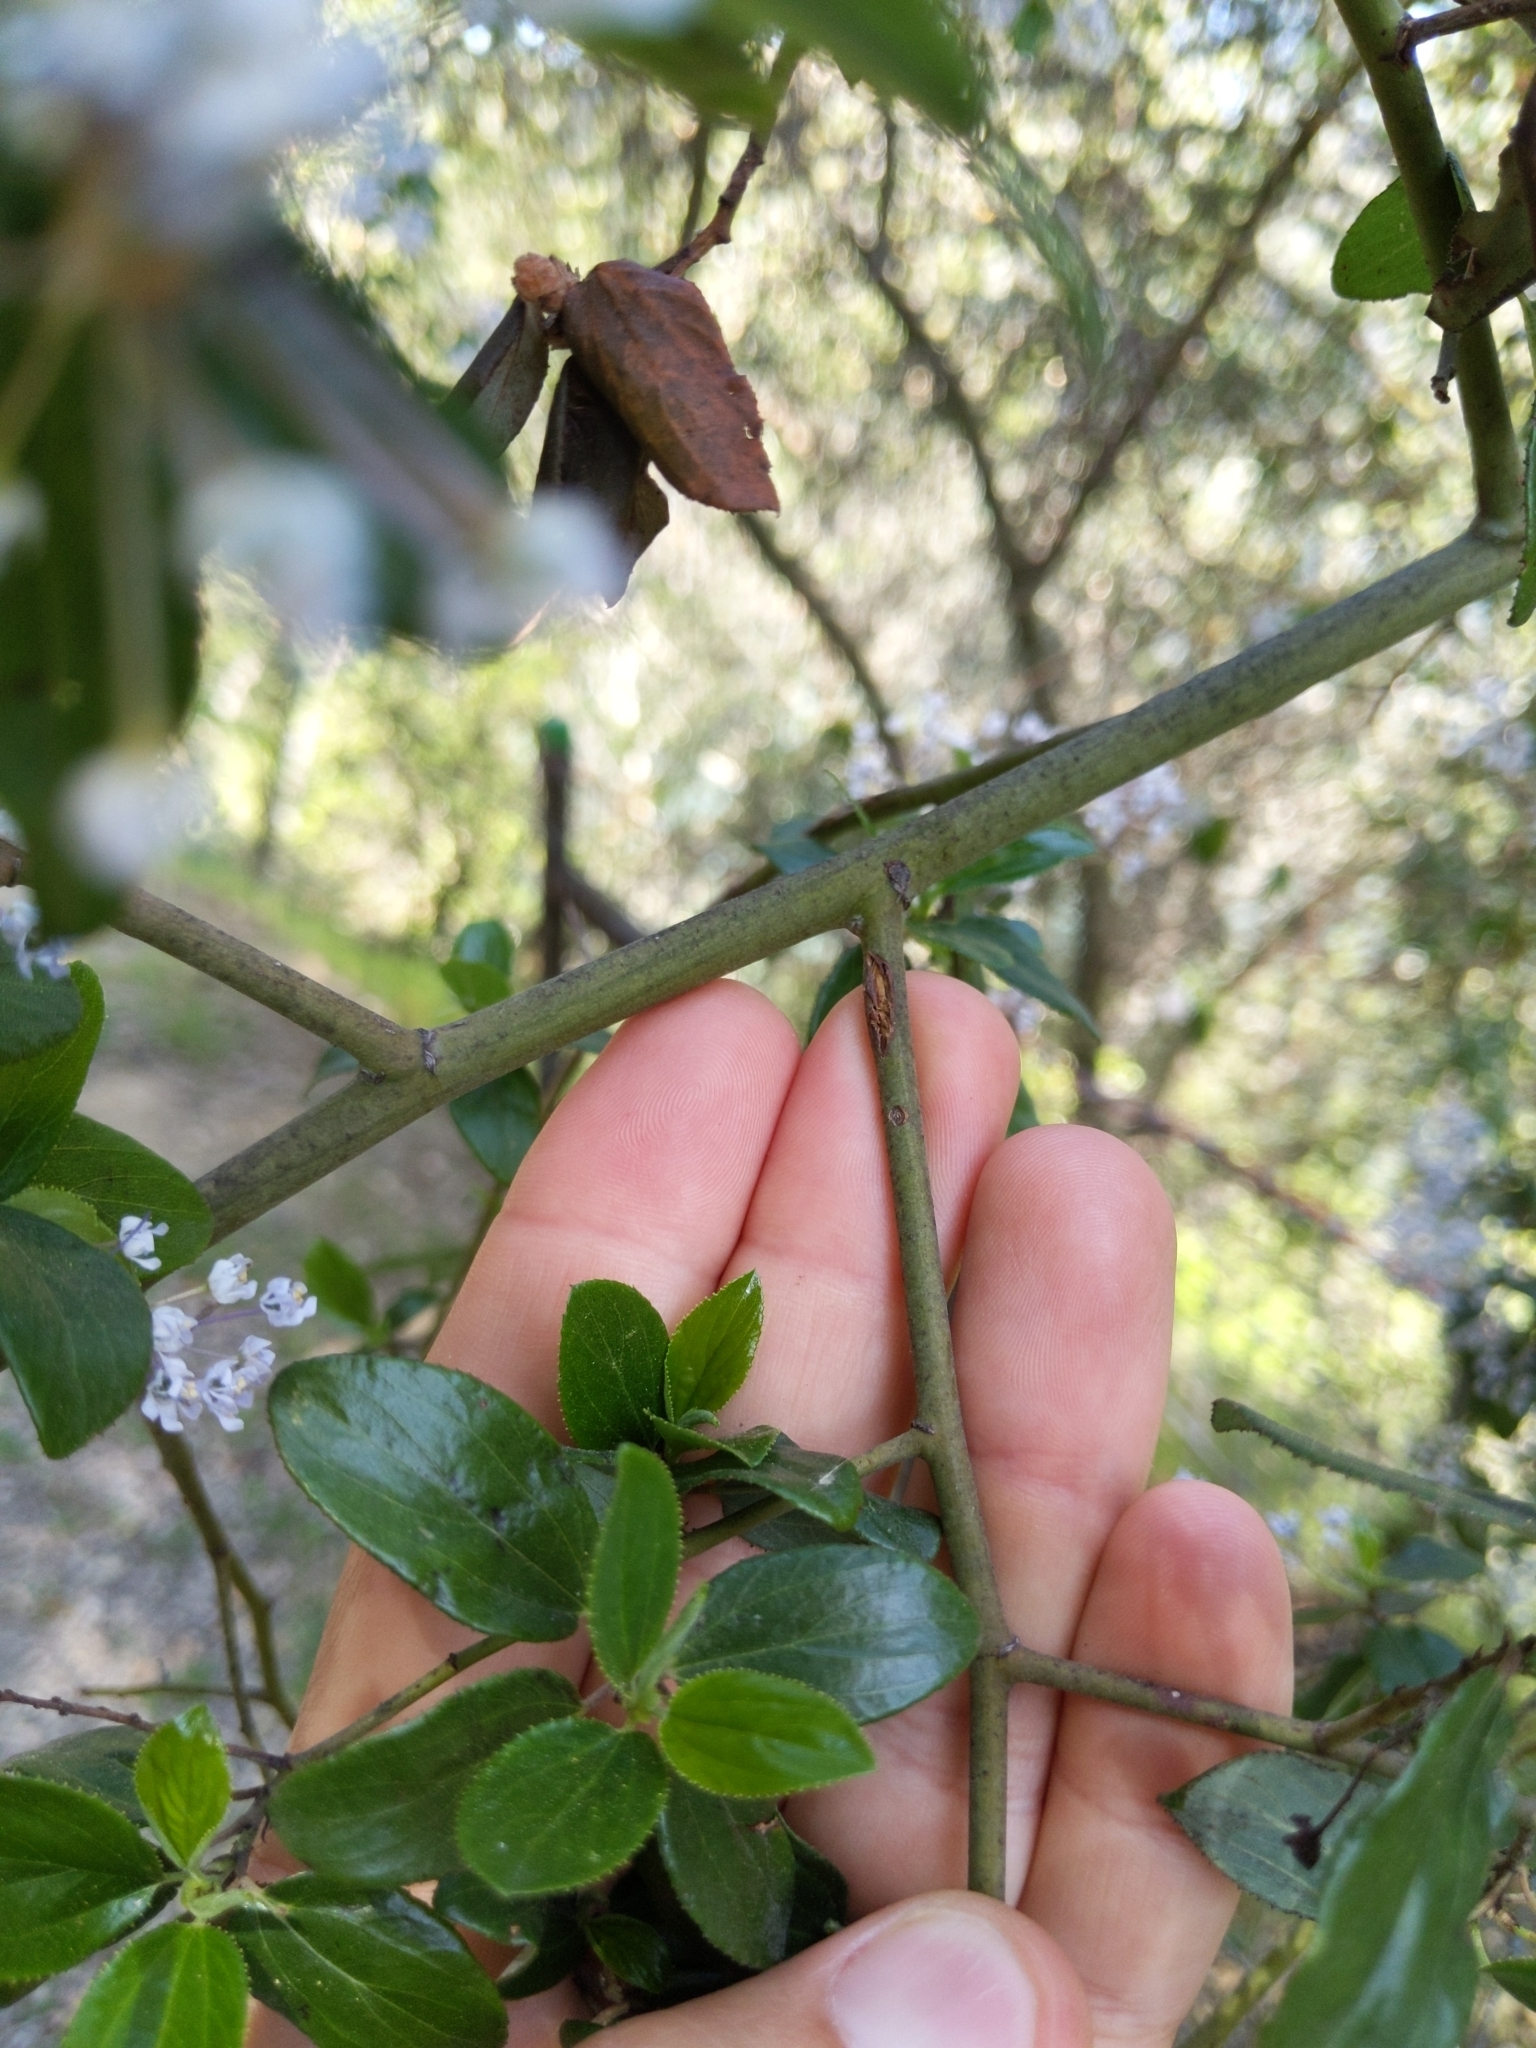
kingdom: Plantae
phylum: Tracheophyta
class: Magnoliopsida
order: Rosales
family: Rhamnaceae
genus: Ceanothus
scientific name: Ceanothus oliganthus
